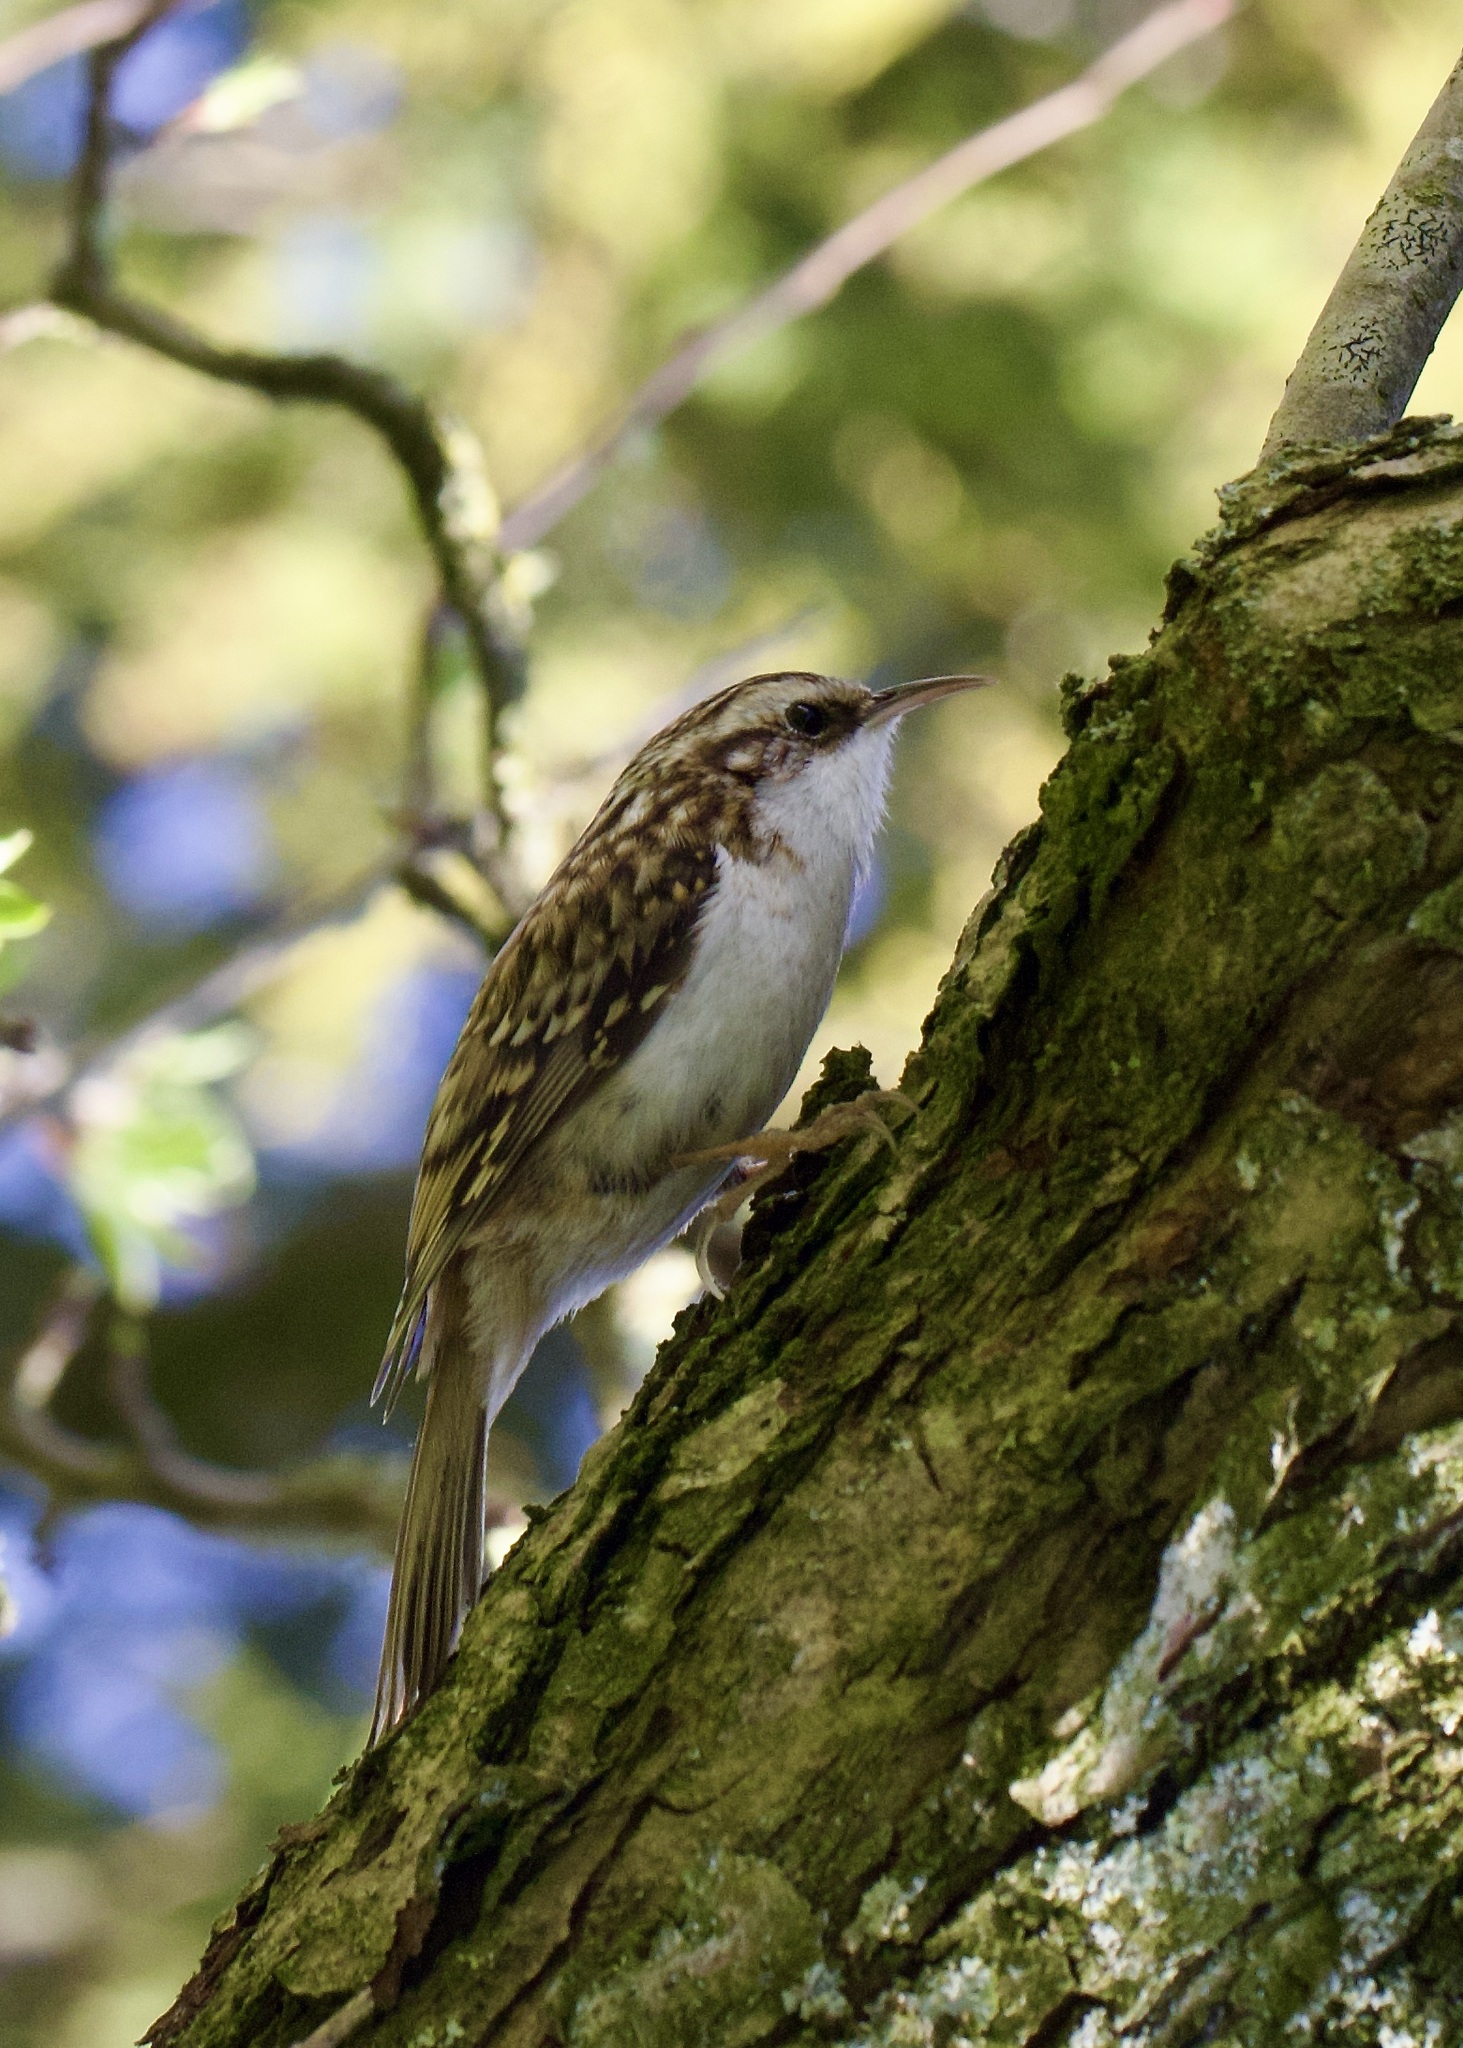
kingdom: Animalia
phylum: Chordata
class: Aves
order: Passeriformes
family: Certhiidae
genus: Certhia
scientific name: Certhia familiaris
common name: Eurasian treecreeper
